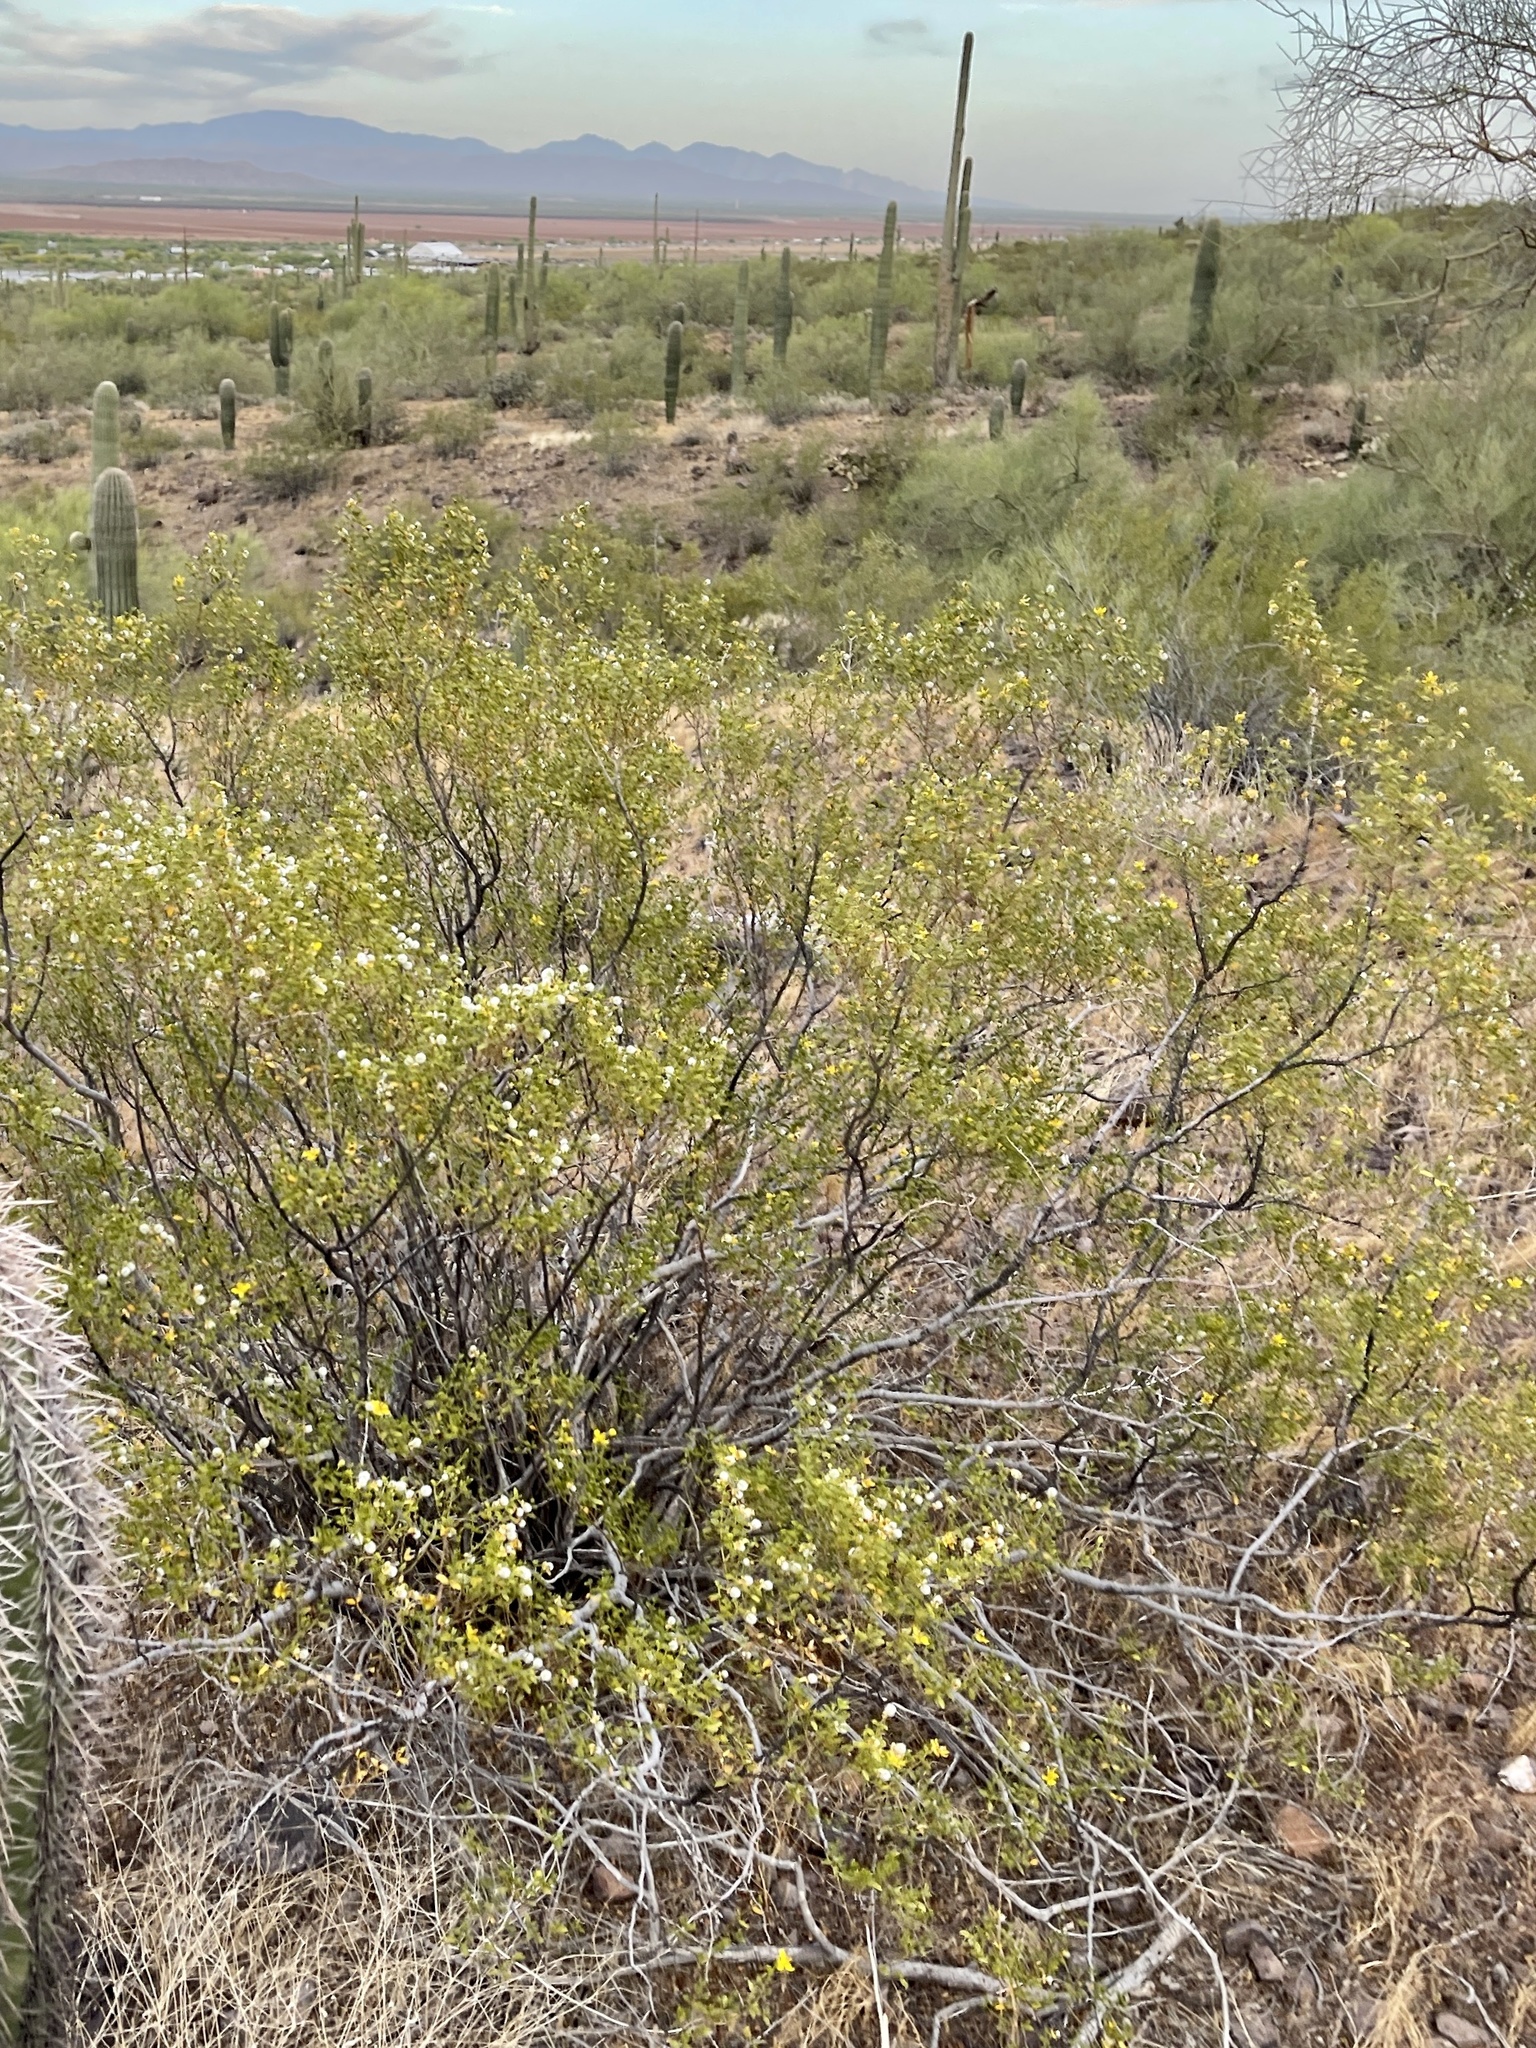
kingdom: Plantae
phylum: Tracheophyta
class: Magnoliopsida
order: Zygophyllales
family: Zygophyllaceae
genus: Larrea
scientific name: Larrea tridentata
